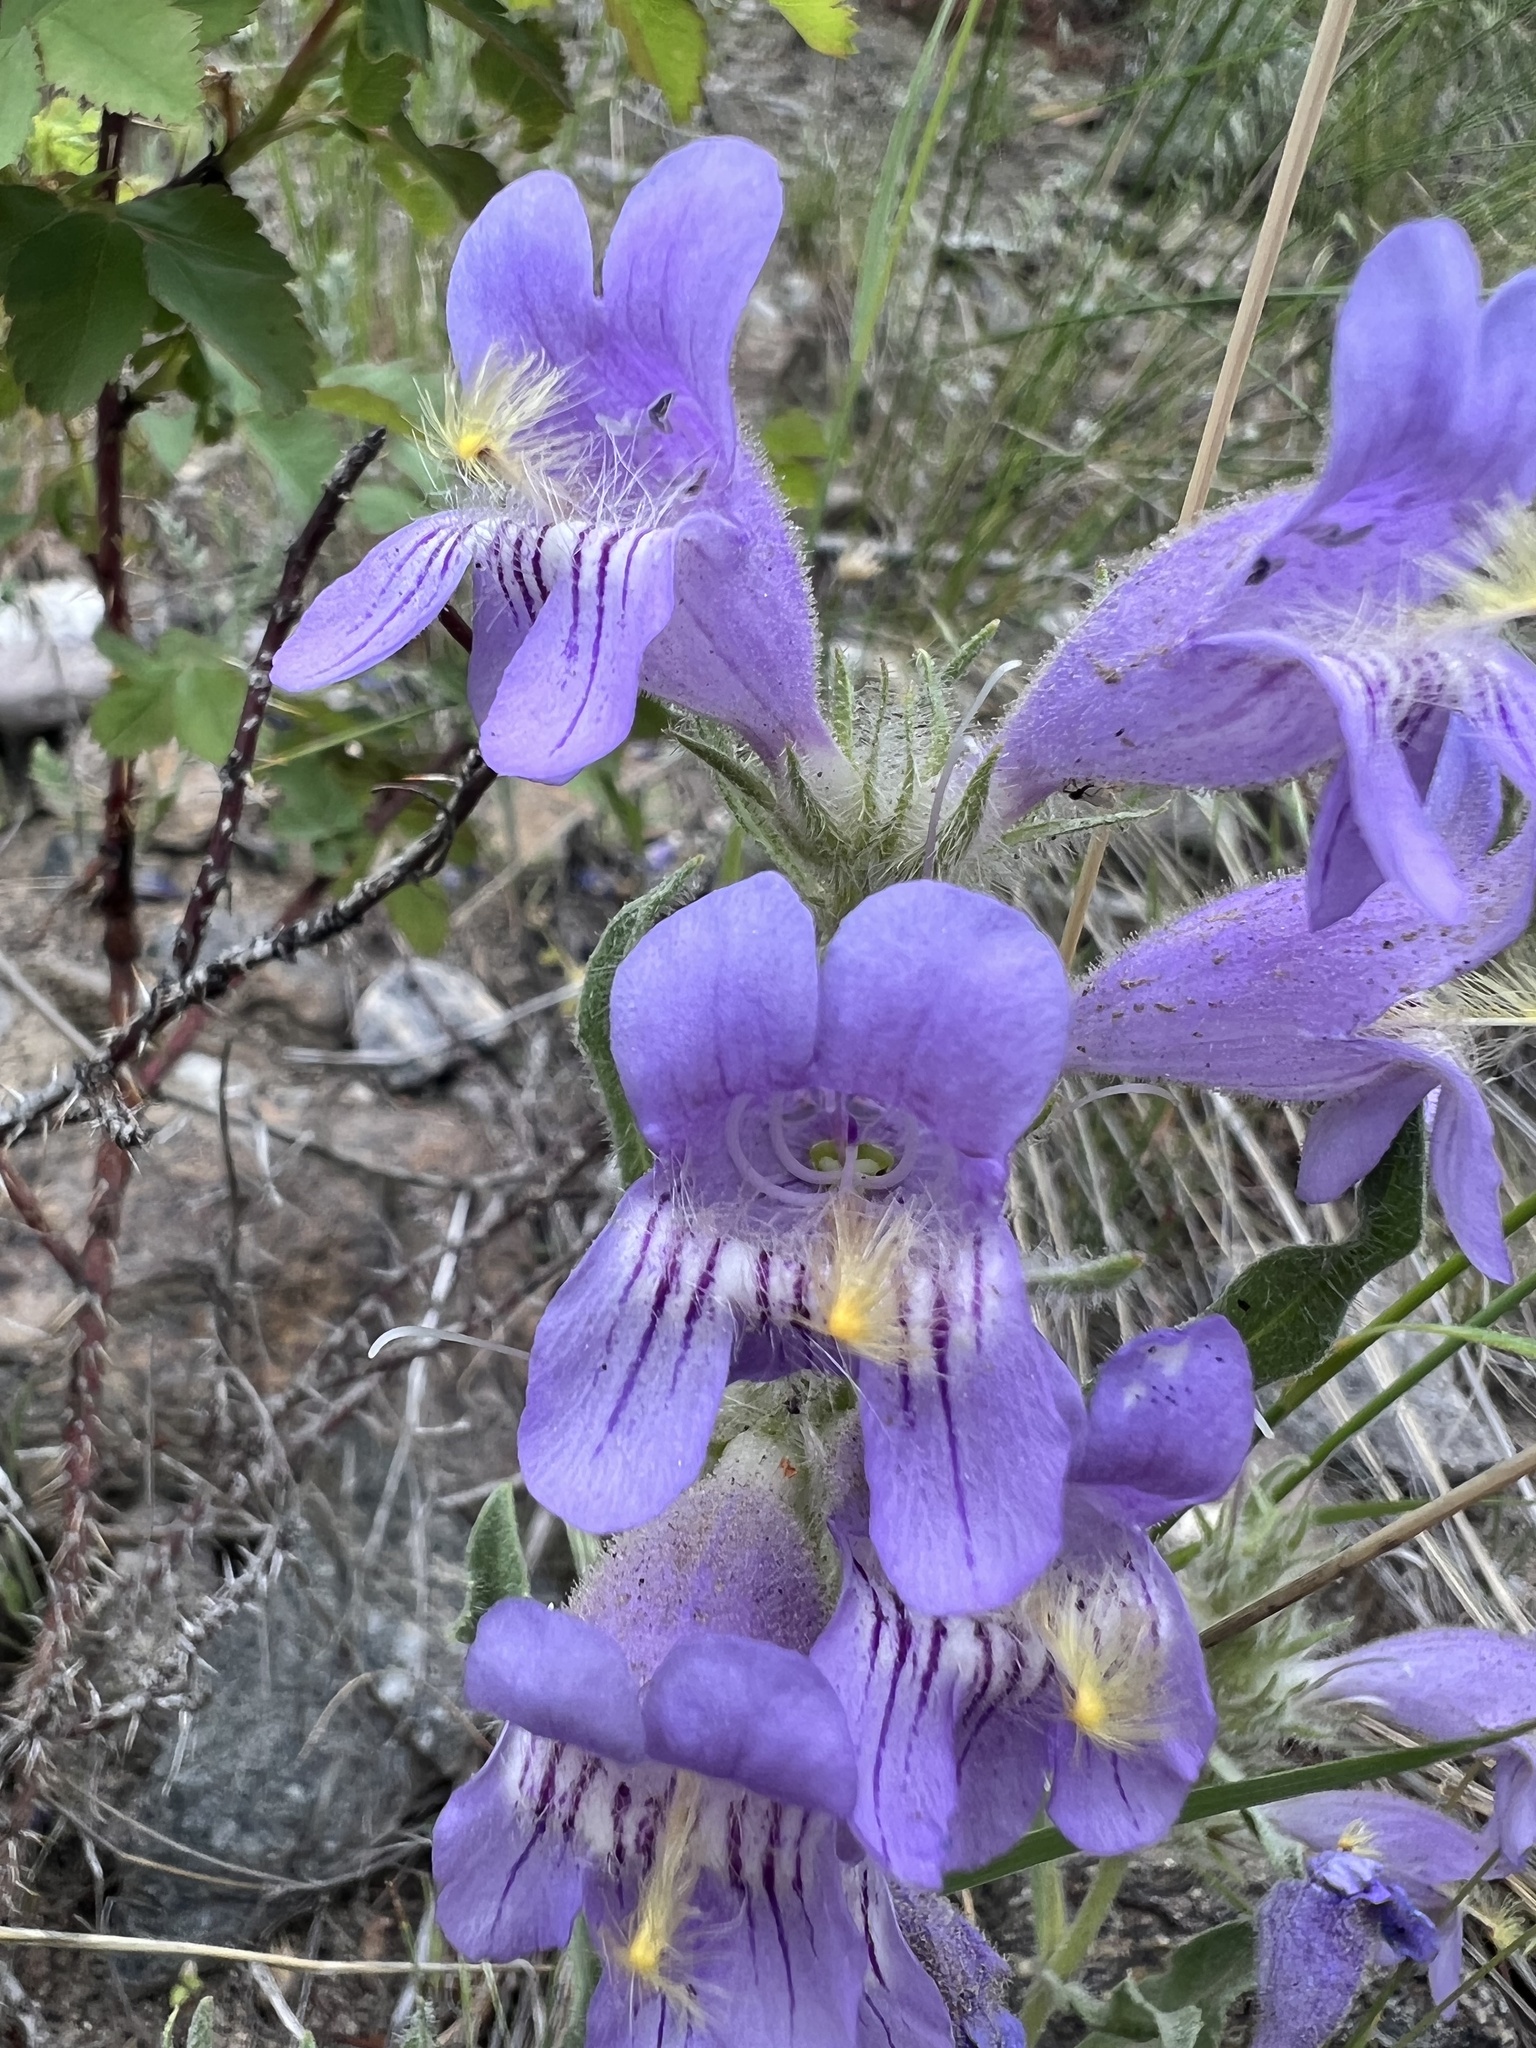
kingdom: Plantae
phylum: Tracheophyta
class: Magnoliopsida
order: Lamiales
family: Plantaginaceae
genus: Penstemon
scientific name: Penstemon eriantherus
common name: Crested beardtongue
